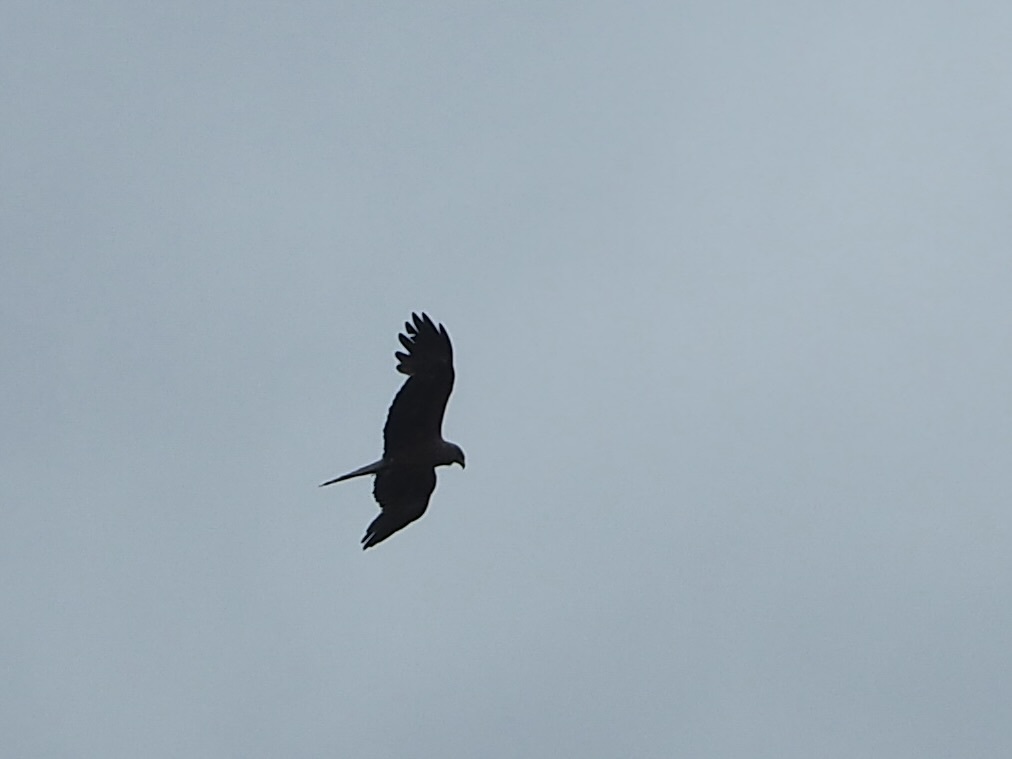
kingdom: Animalia
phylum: Chordata
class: Aves
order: Accipitriformes
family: Accipitridae
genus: Milvus
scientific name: Milvus migrans
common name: Black kite
